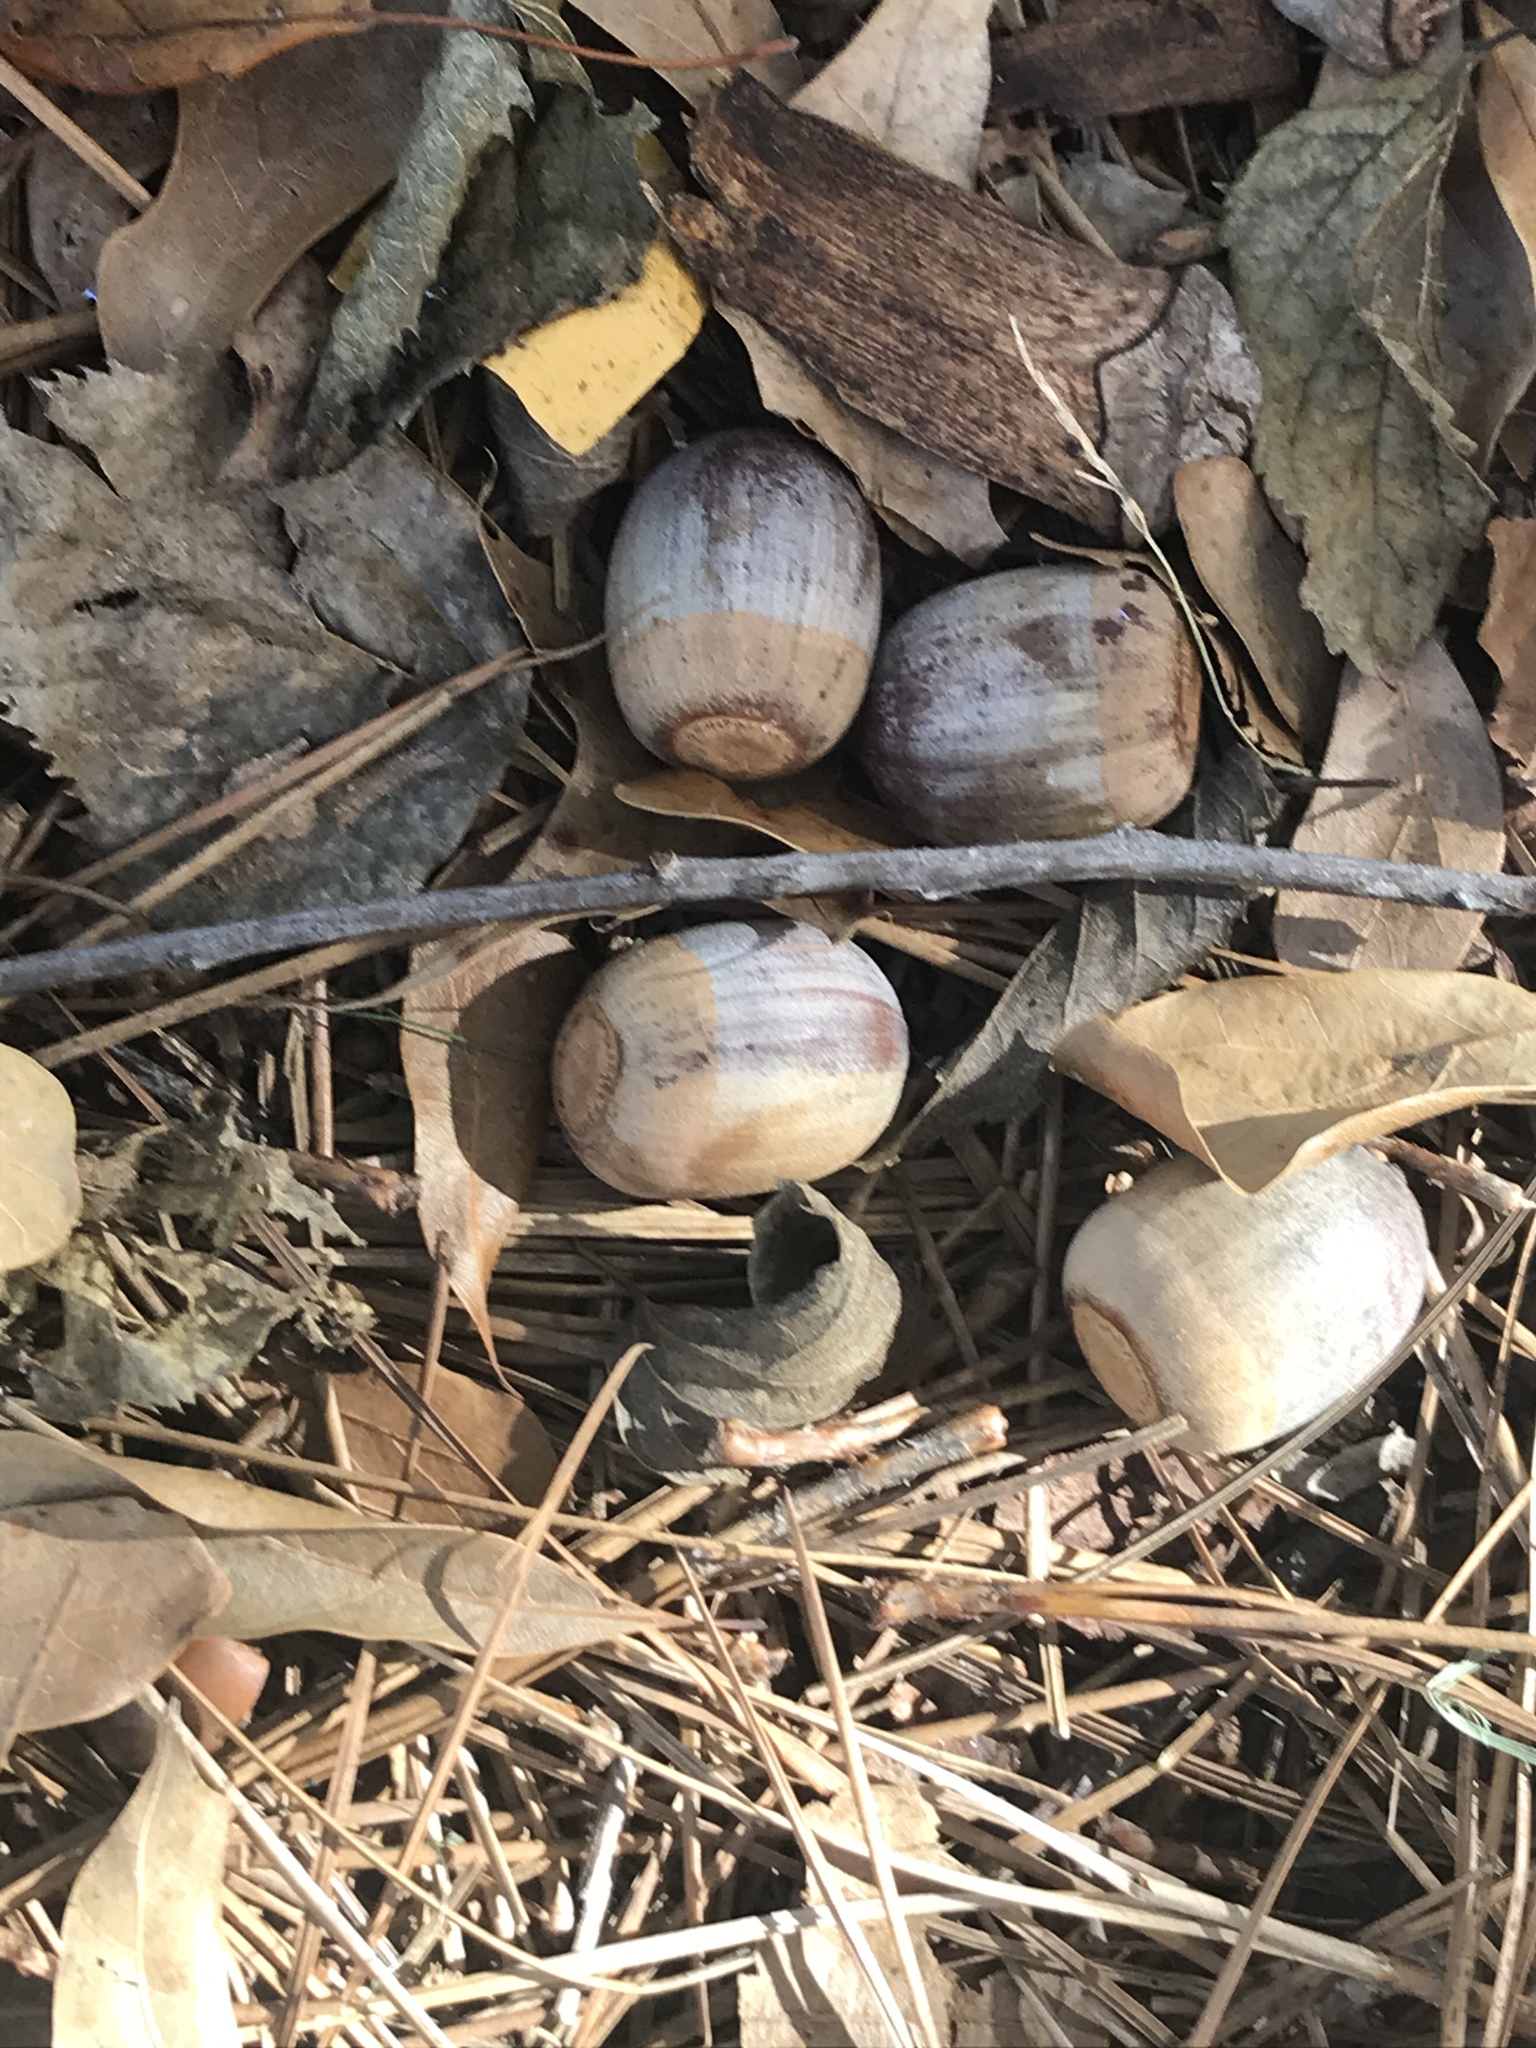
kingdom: Plantae
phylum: Tracheophyta
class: Magnoliopsida
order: Fagales
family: Fagaceae
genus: Quercus
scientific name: Quercus rubra
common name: Red oak
